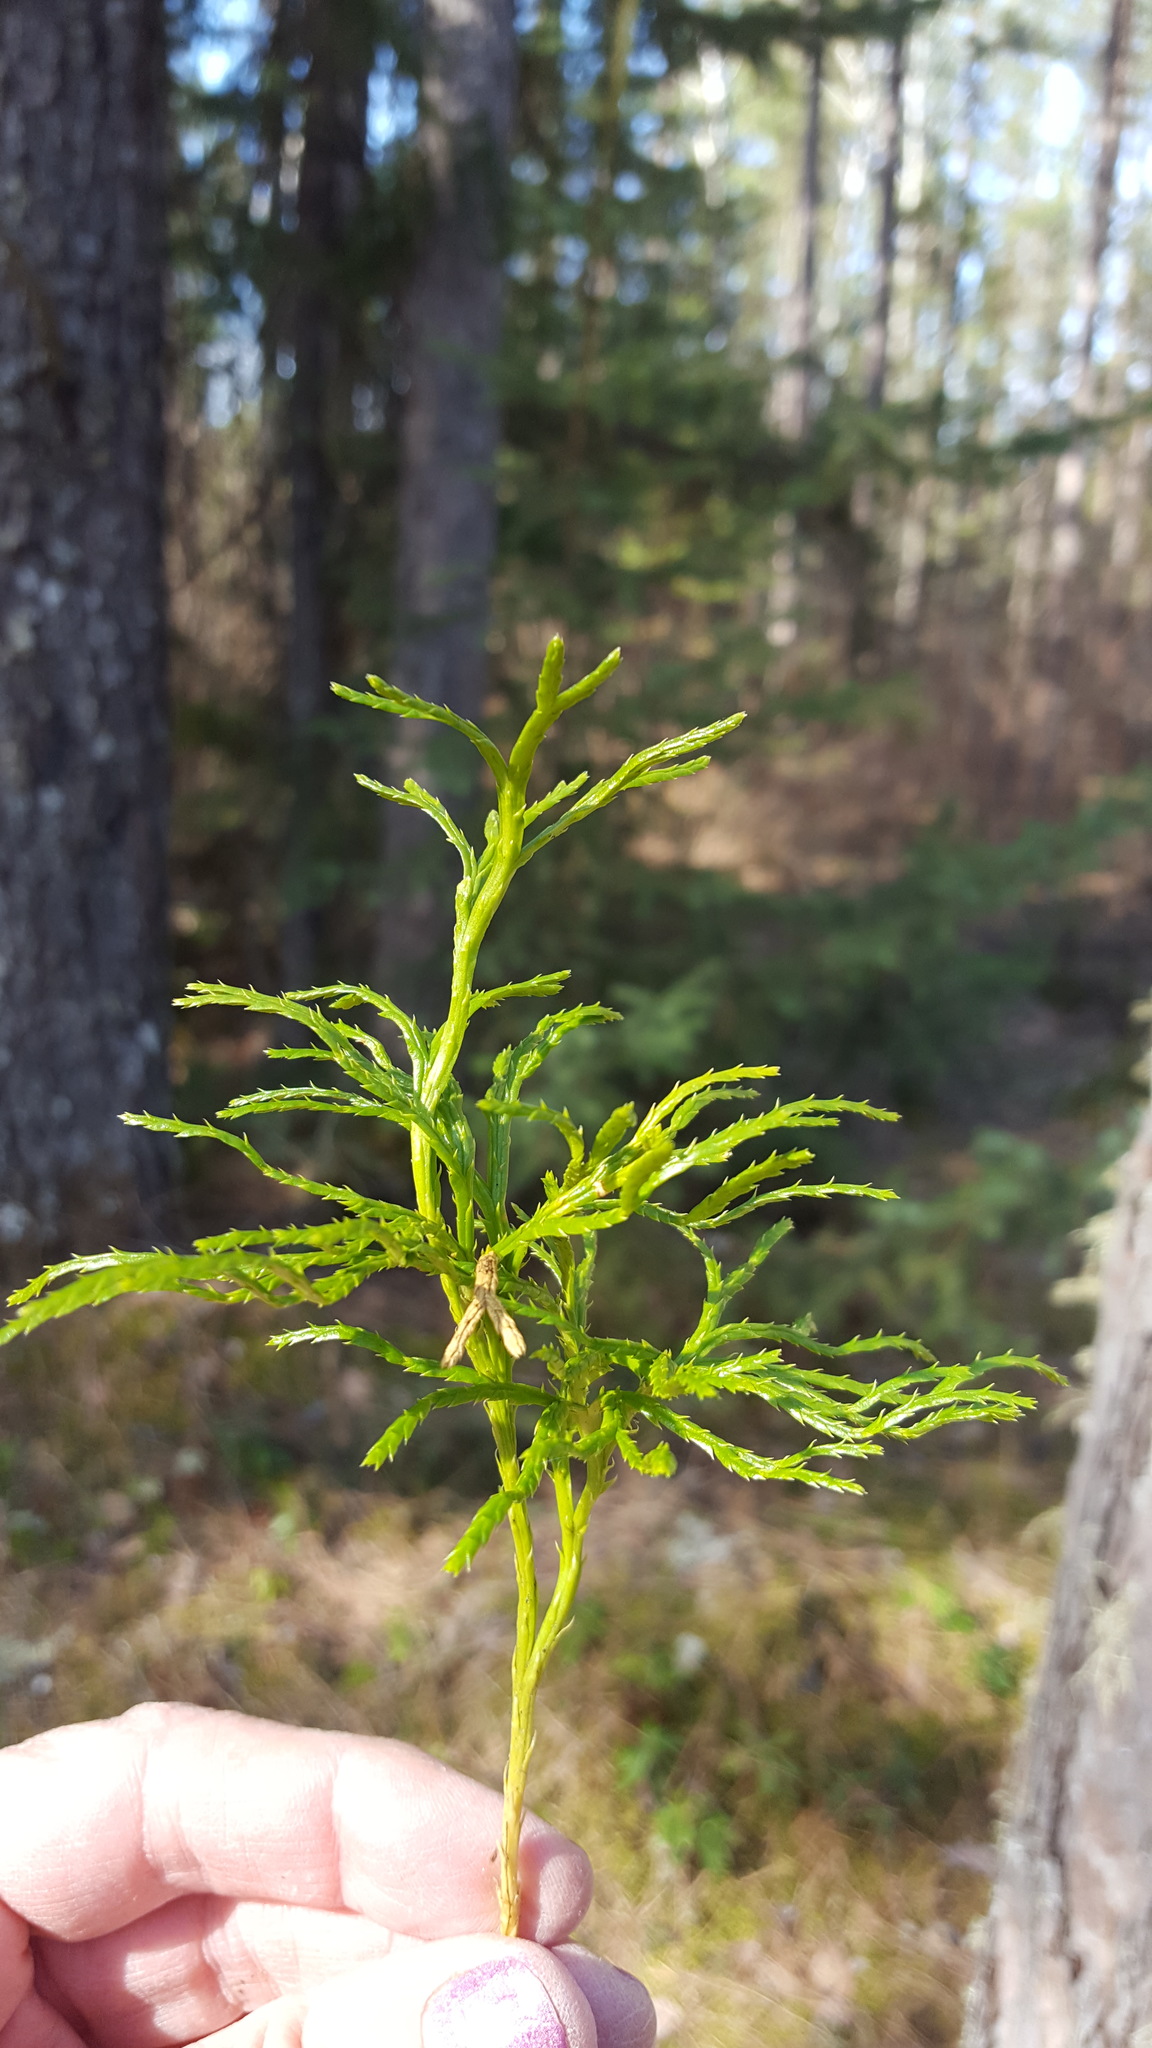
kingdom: Plantae
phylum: Tracheophyta
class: Lycopodiopsida
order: Lycopodiales
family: Lycopodiaceae
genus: Diphasiastrum
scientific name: Diphasiastrum complanatum
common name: Northern running-pine
